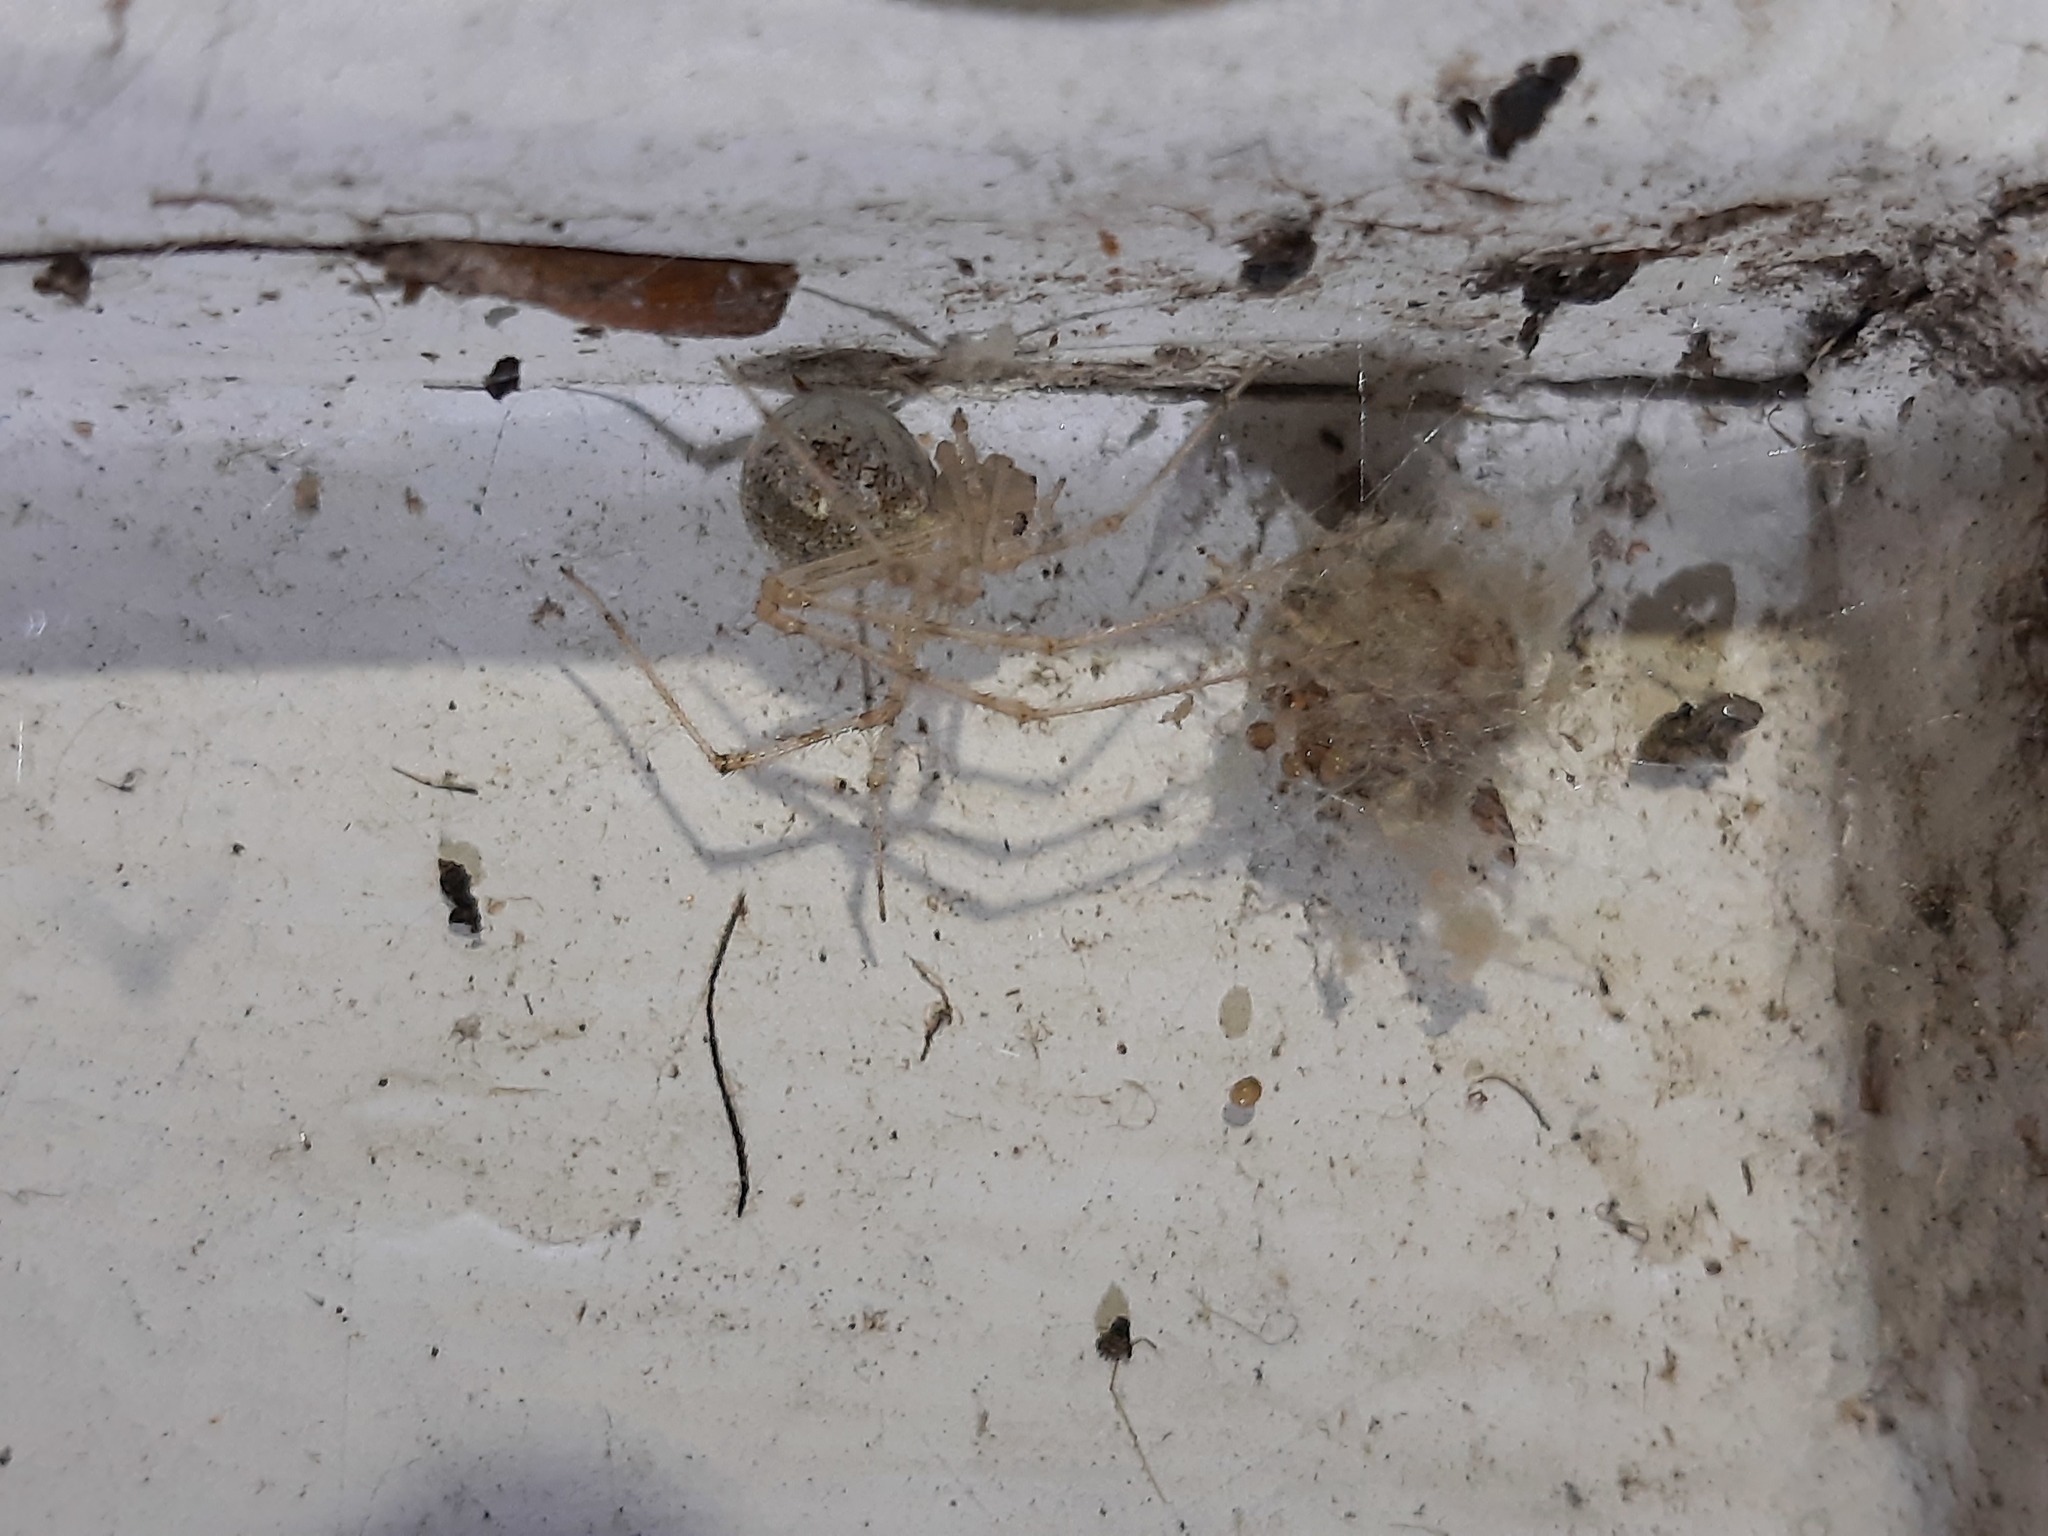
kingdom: Animalia
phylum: Arthropoda
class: Arachnida
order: Araneae
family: Theridiidae
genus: Cryptachaea
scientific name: Cryptachaea gigantipes
